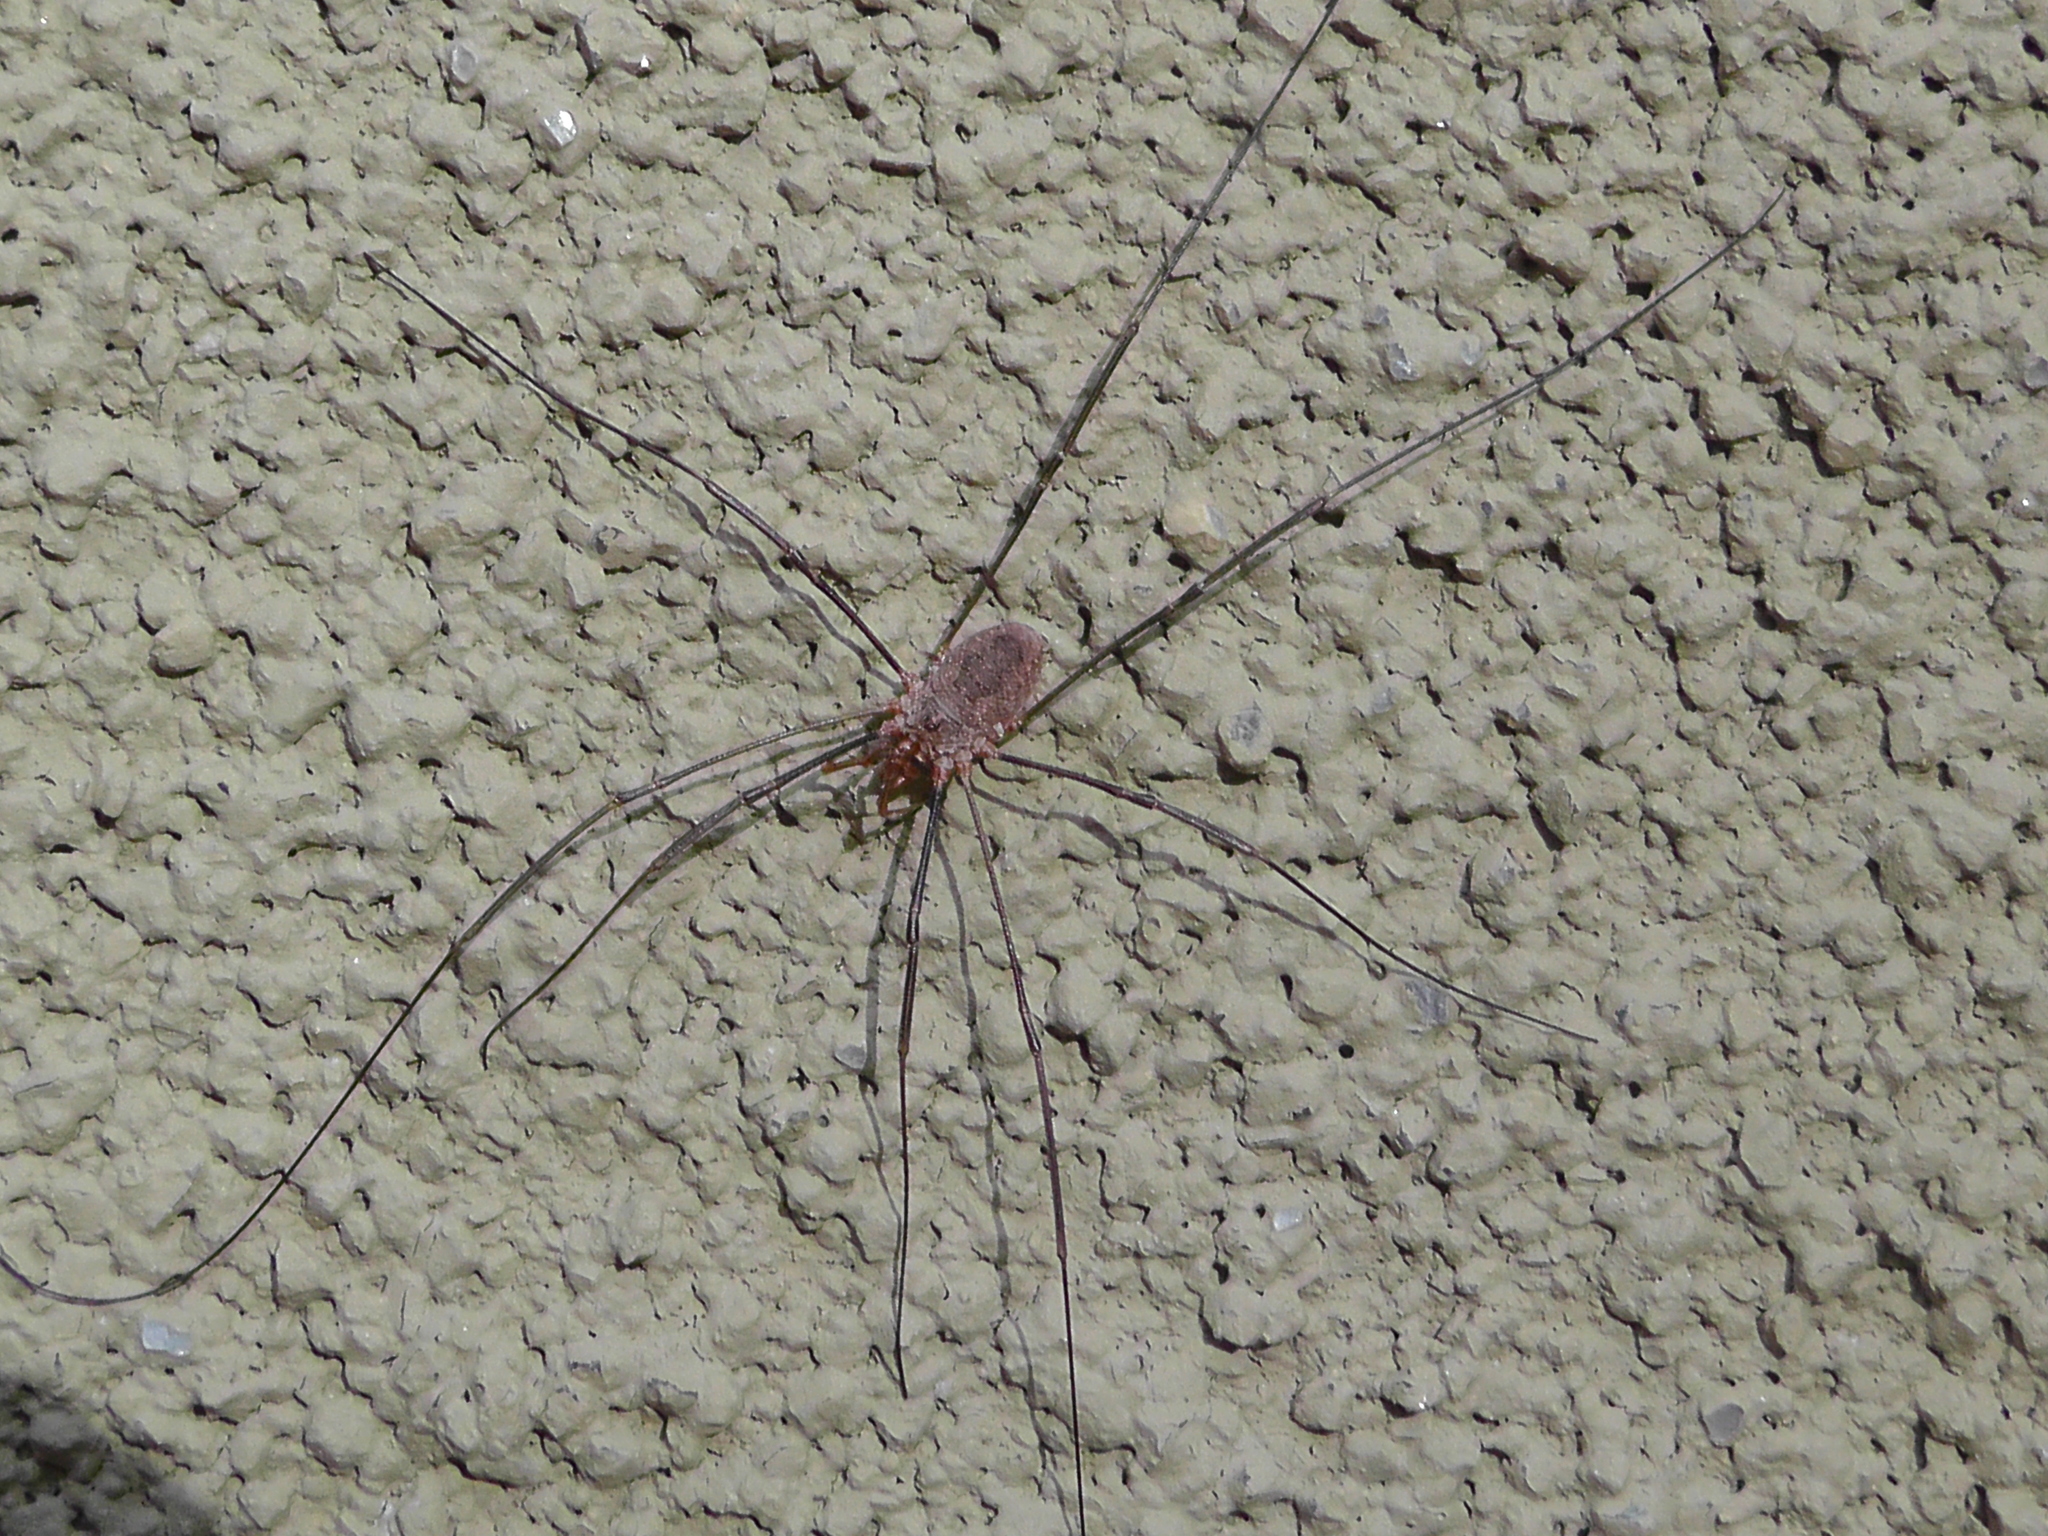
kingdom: Animalia
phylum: Arthropoda
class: Arachnida
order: Opiliones
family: Phalangiidae
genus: Phalangium
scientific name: Phalangium opilio
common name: Daddy longleg
